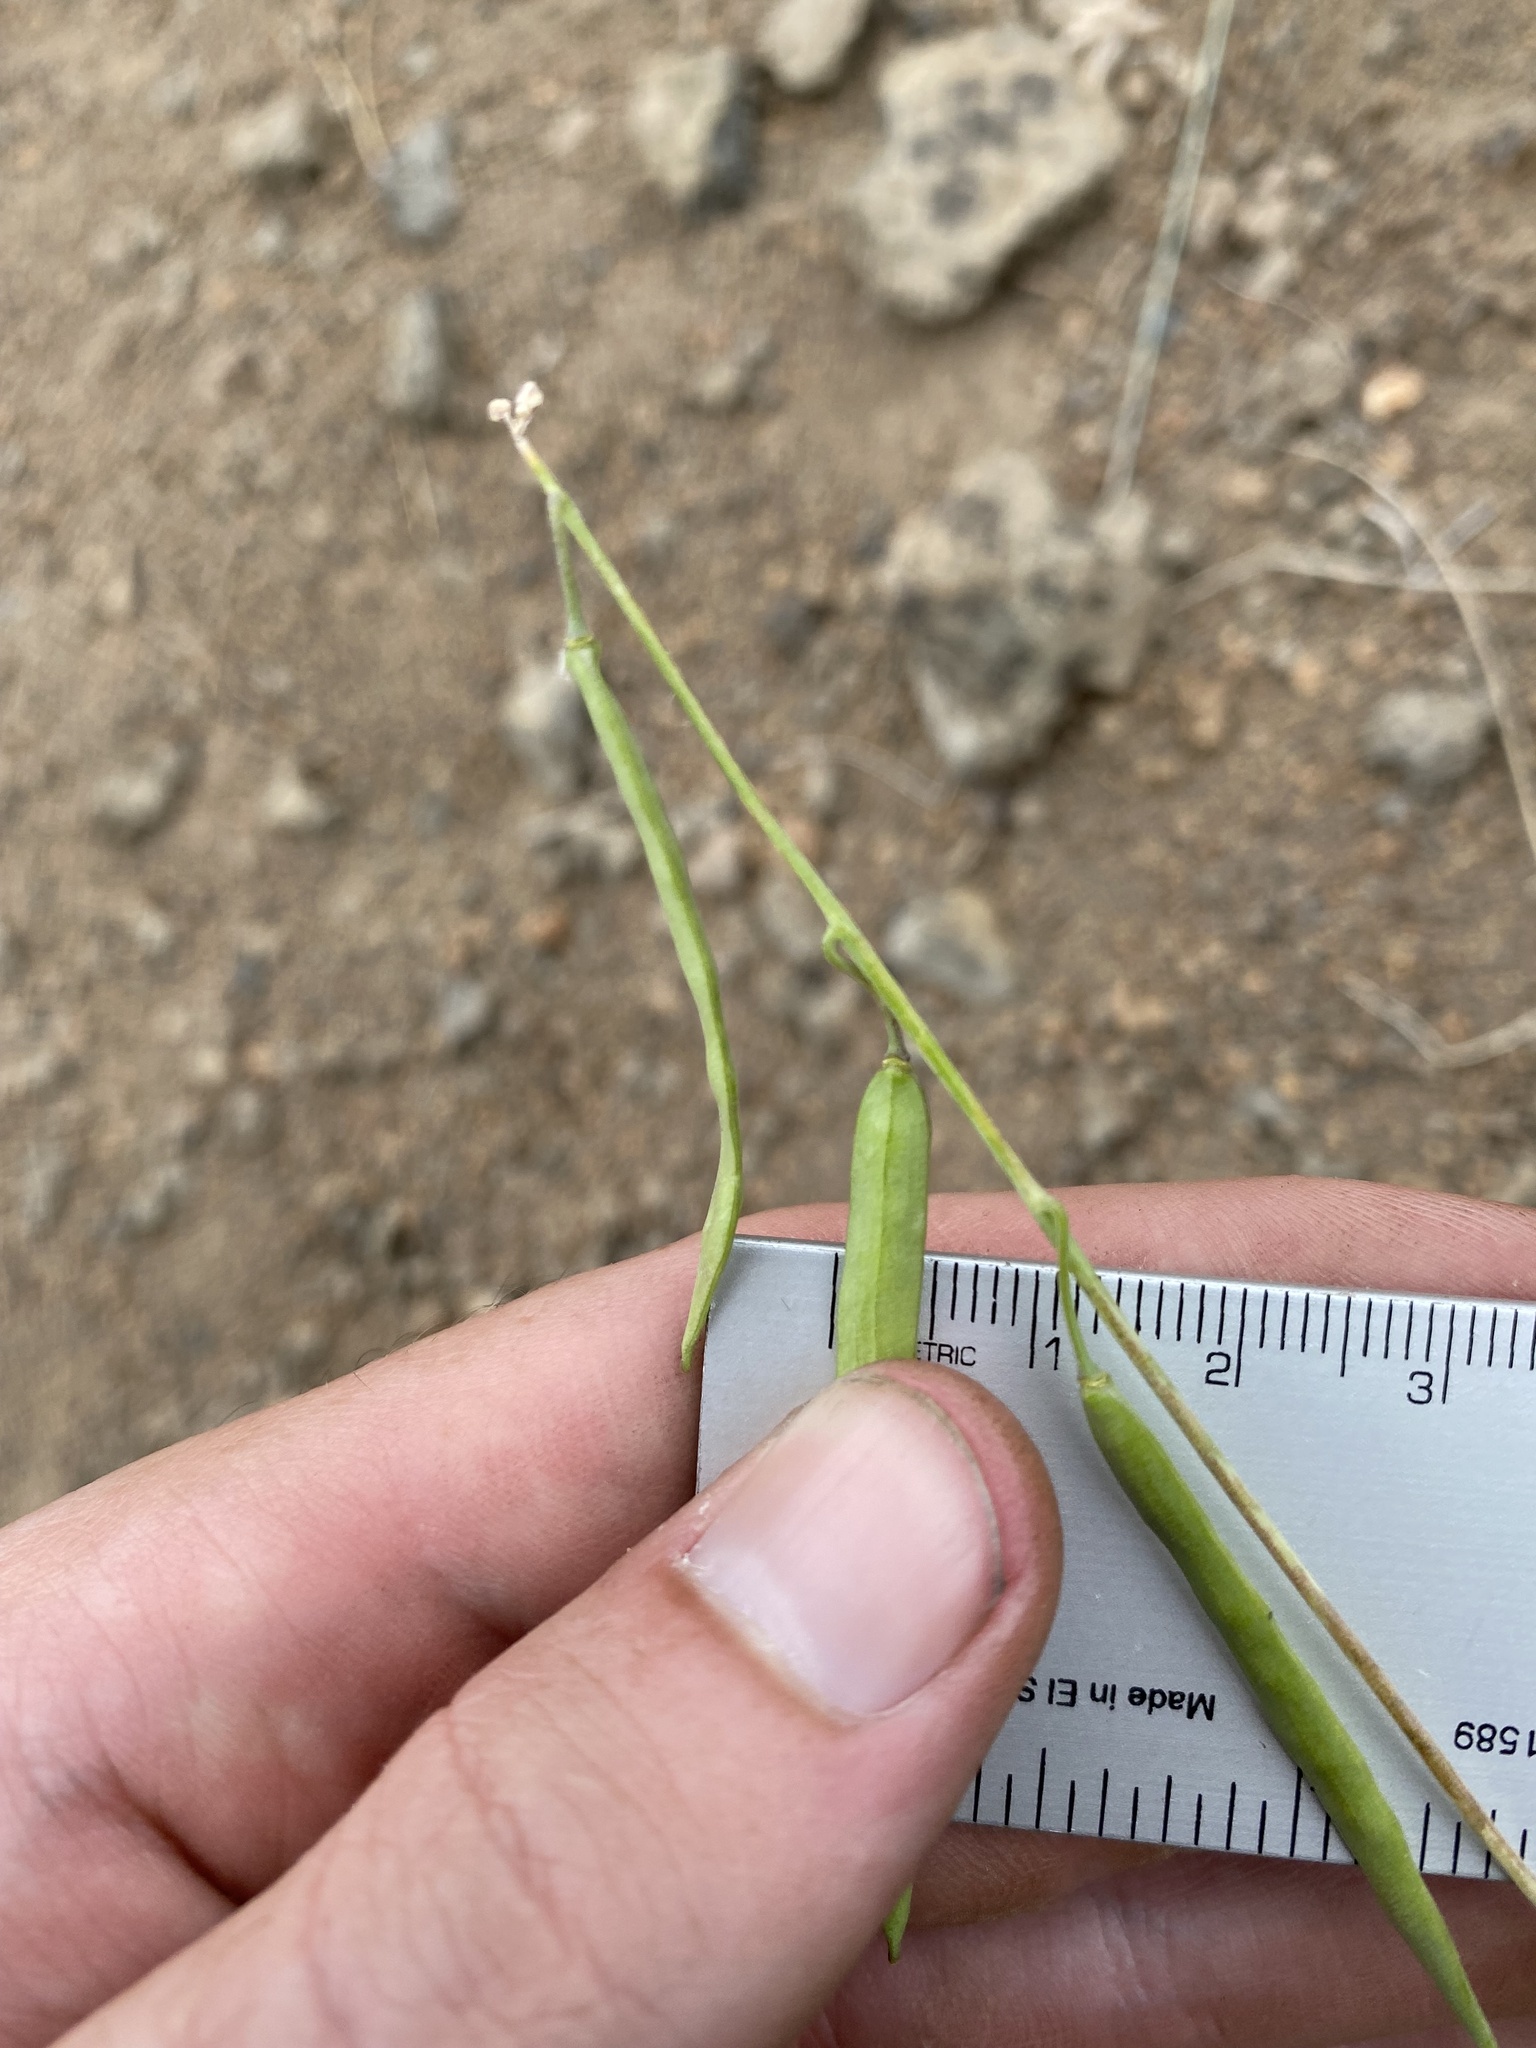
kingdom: Plantae
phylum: Tracheophyta
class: Magnoliopsida
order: Brassicales
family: Brassicaceae
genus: Boechera
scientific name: Boechera suffrutescens
